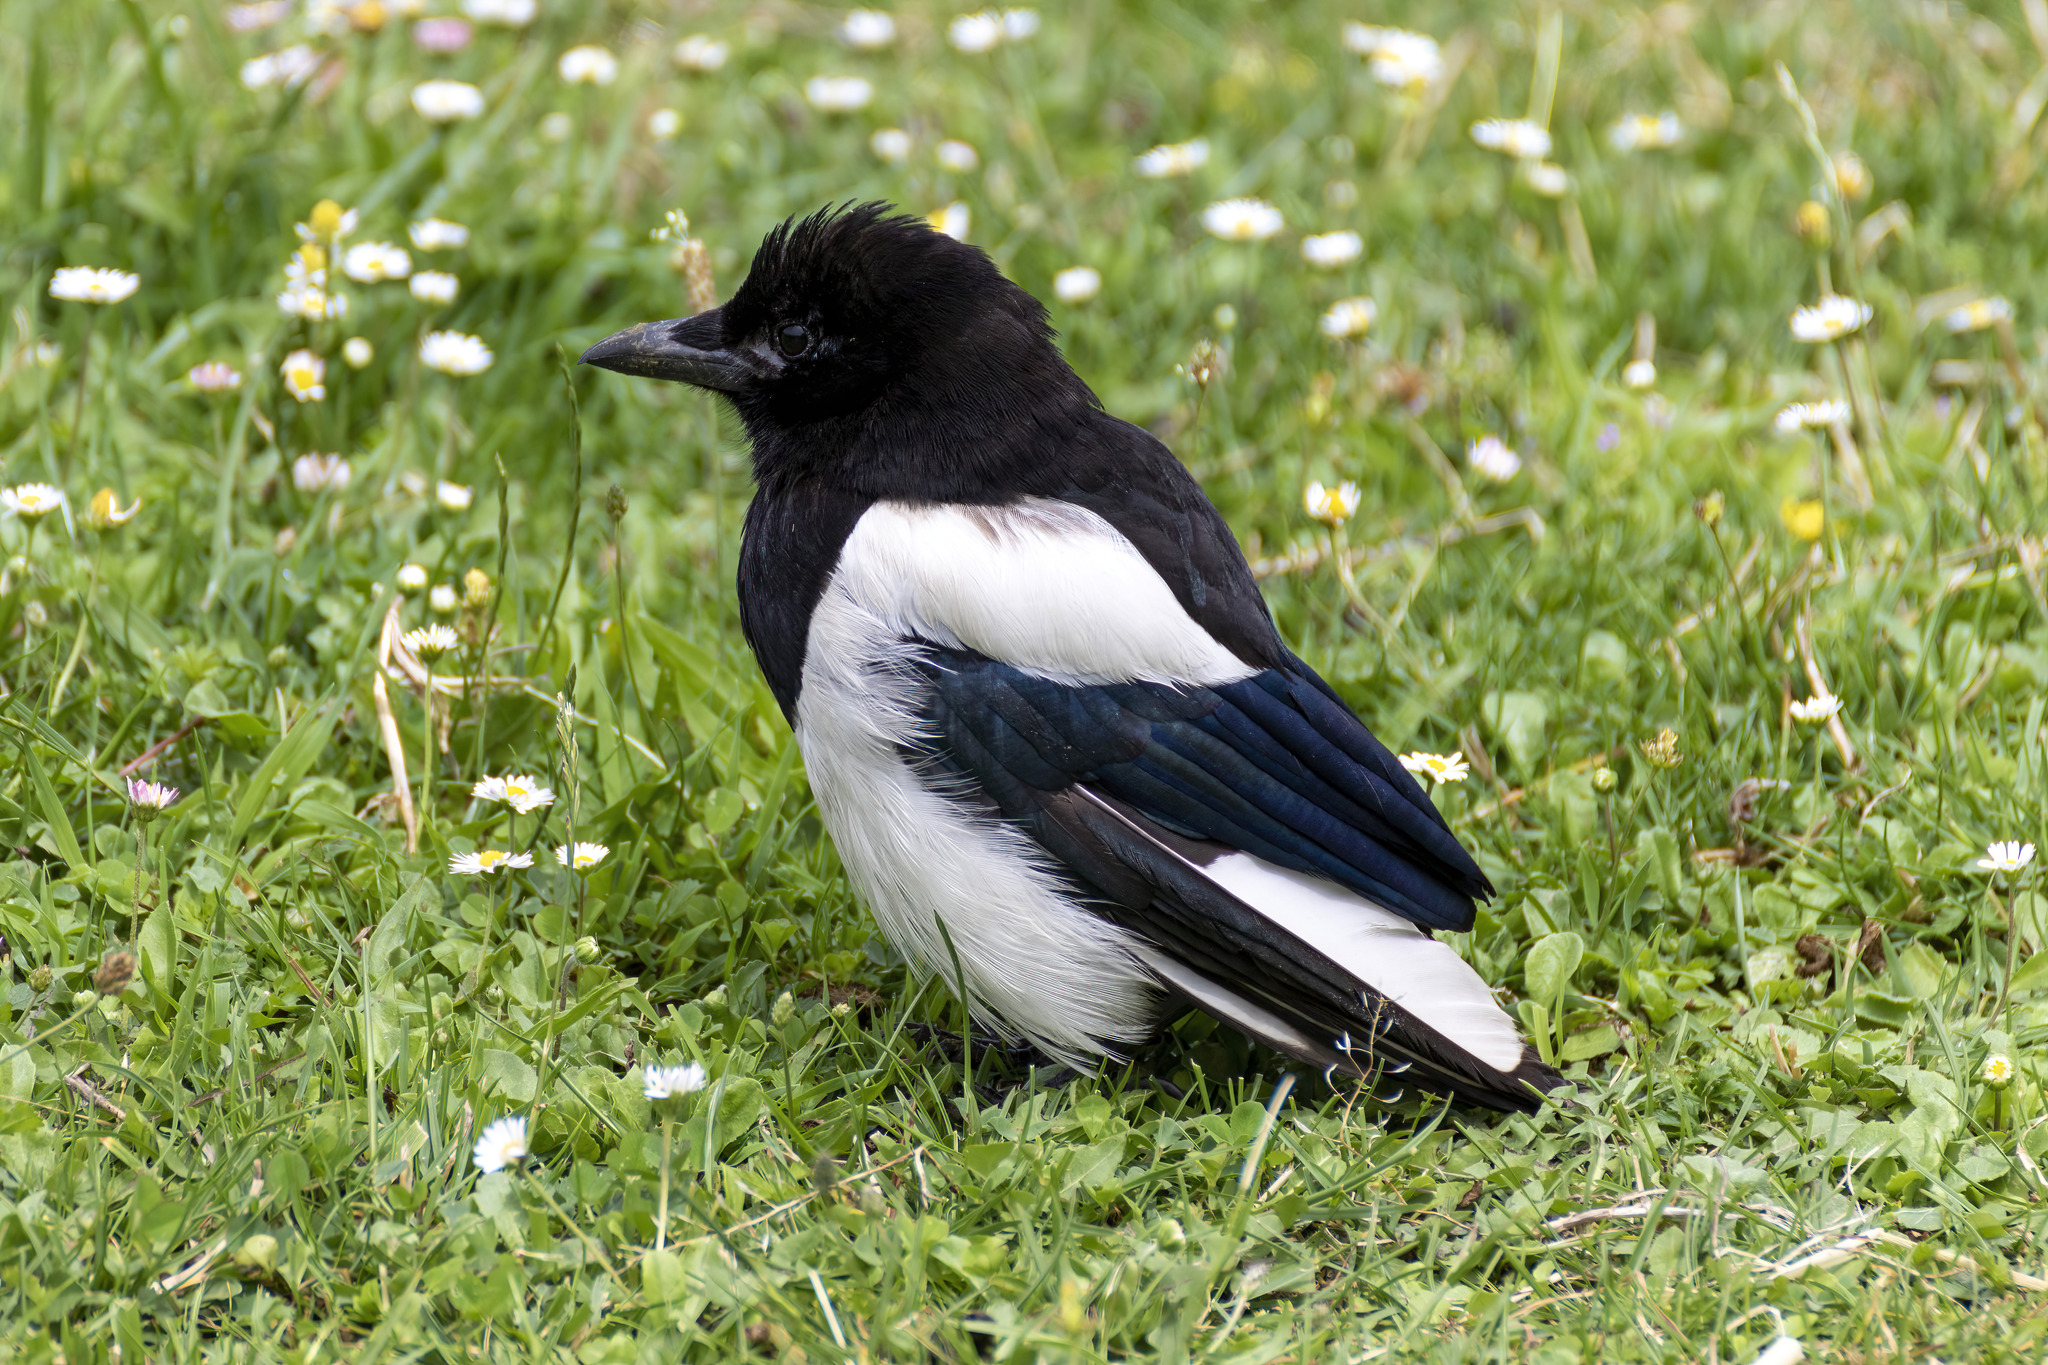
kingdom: Animalia
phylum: Chordata
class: Aves
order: Passeriformes
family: Corvidae
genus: Pica
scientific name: Pica pica
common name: Eurasian magpie
